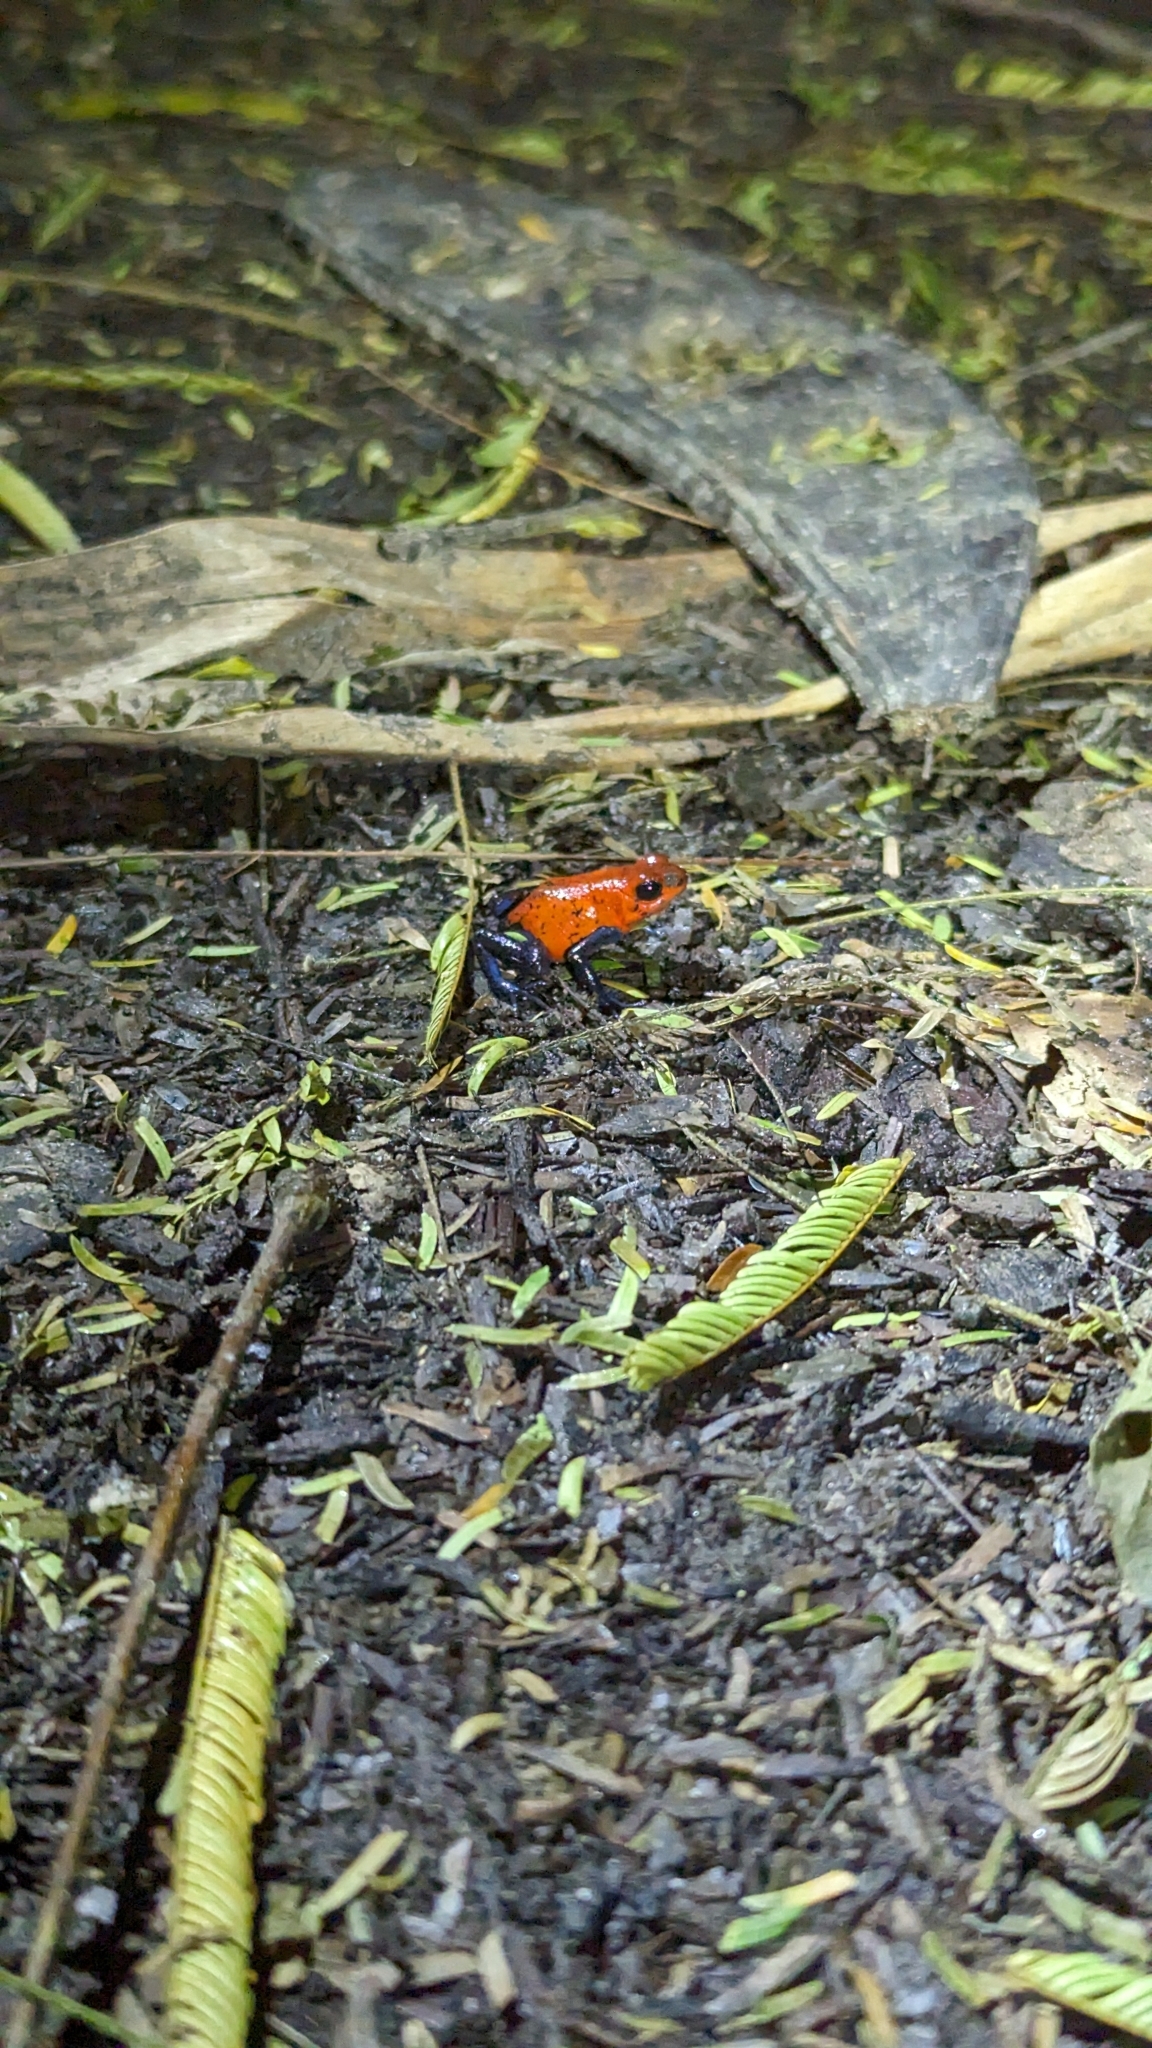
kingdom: Animalia
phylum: Chordata
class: Amphibia
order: Anura
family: Dendrobatidae
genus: Oophaga
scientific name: Oophaga pumilio
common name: Flaming poison frog
